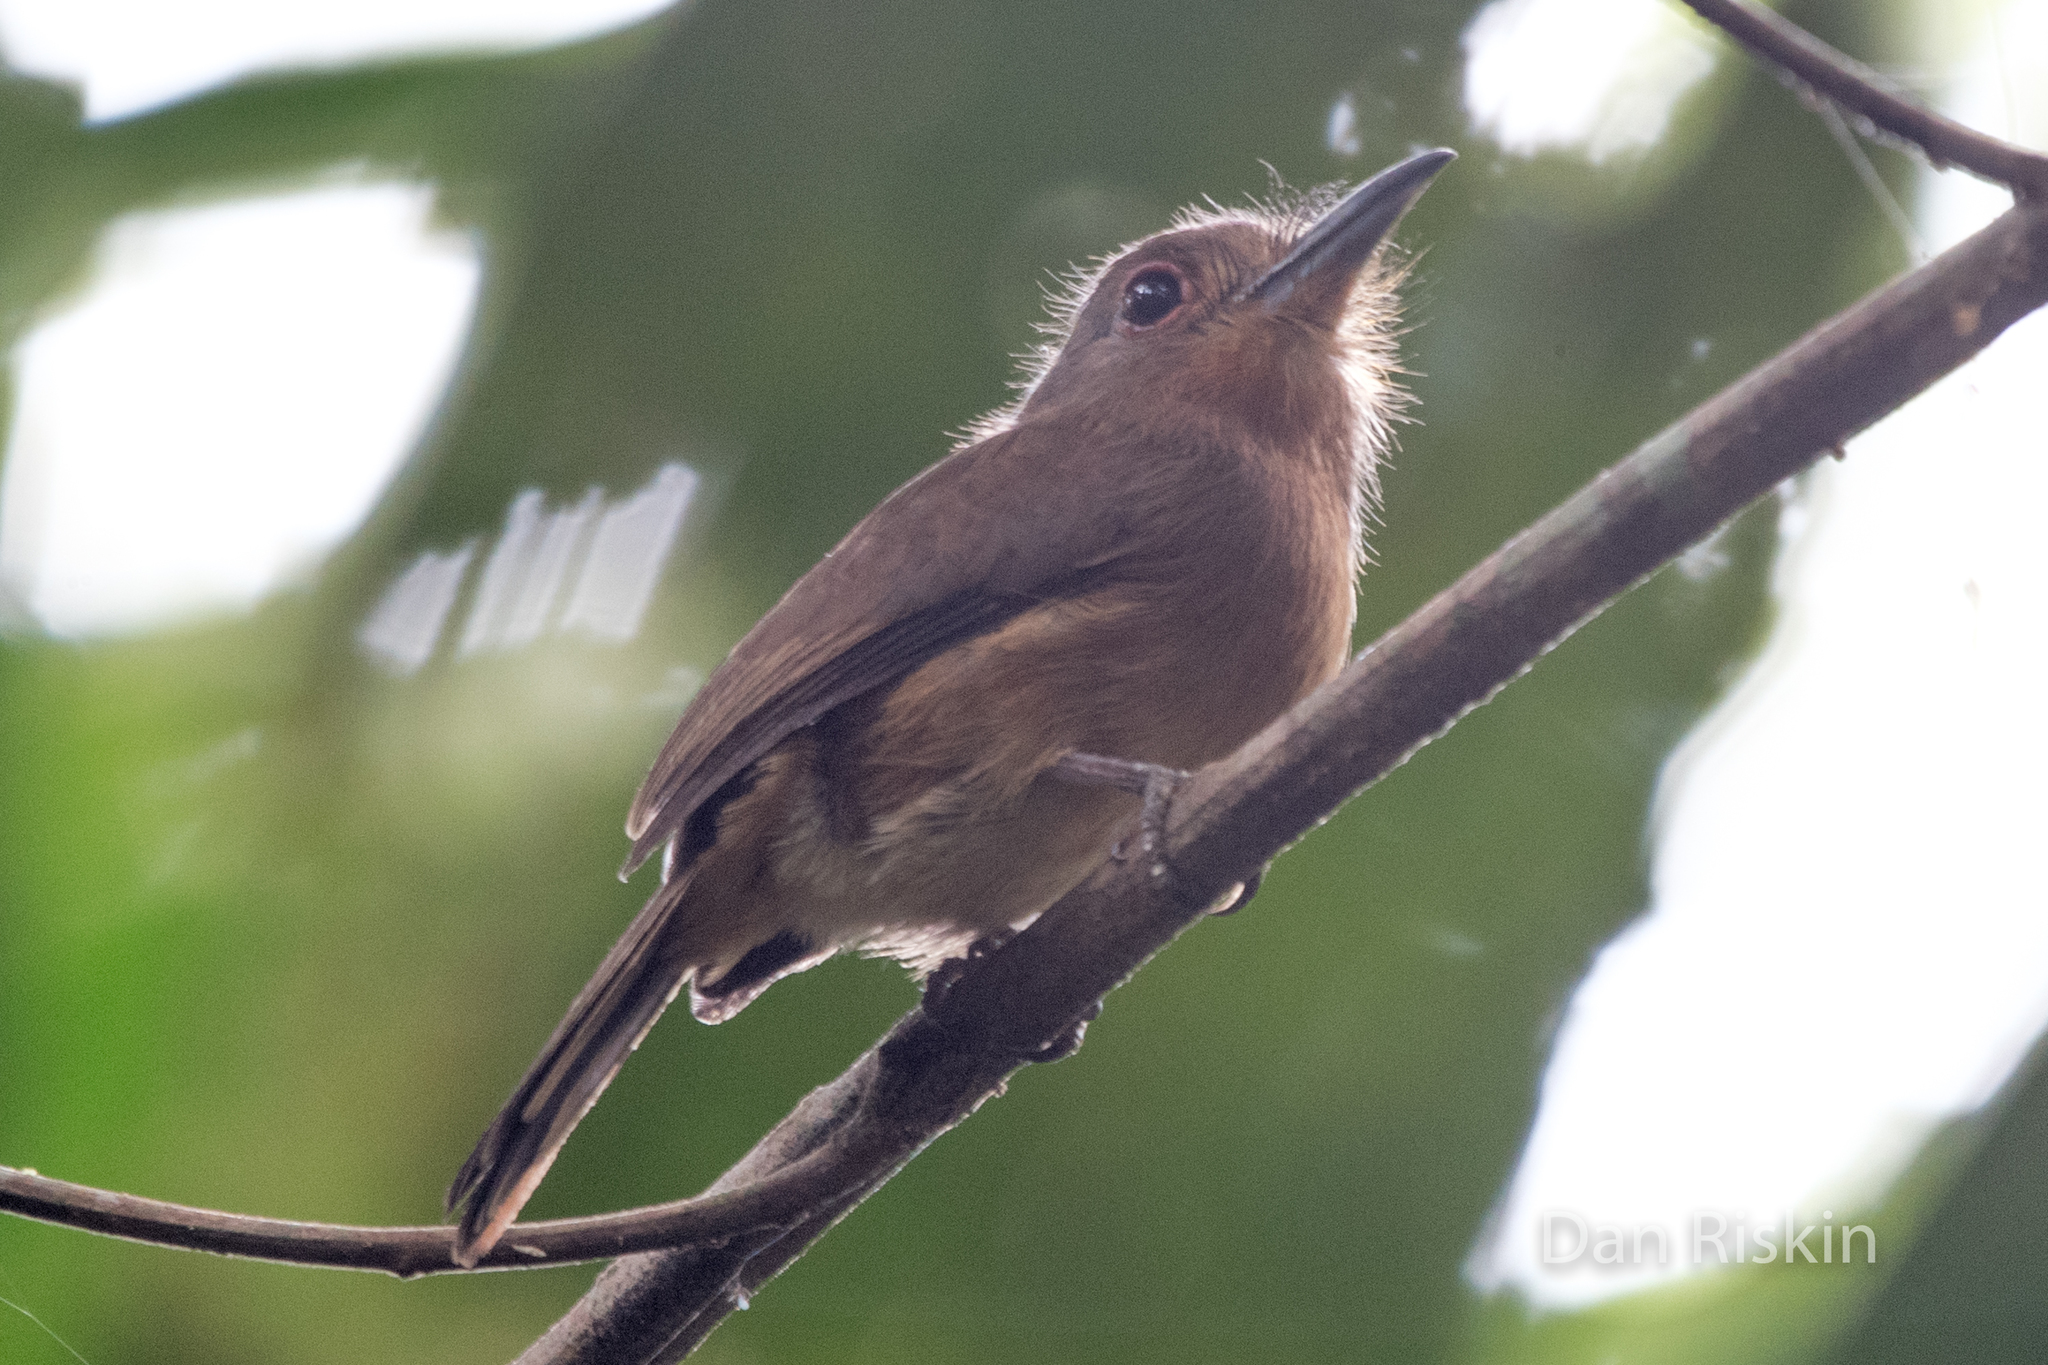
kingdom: Animalia
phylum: Chordata
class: Aves
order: Piciformes
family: Bucconidae
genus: Nonnula
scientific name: Nonnula brunnea
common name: Brown nunlet
